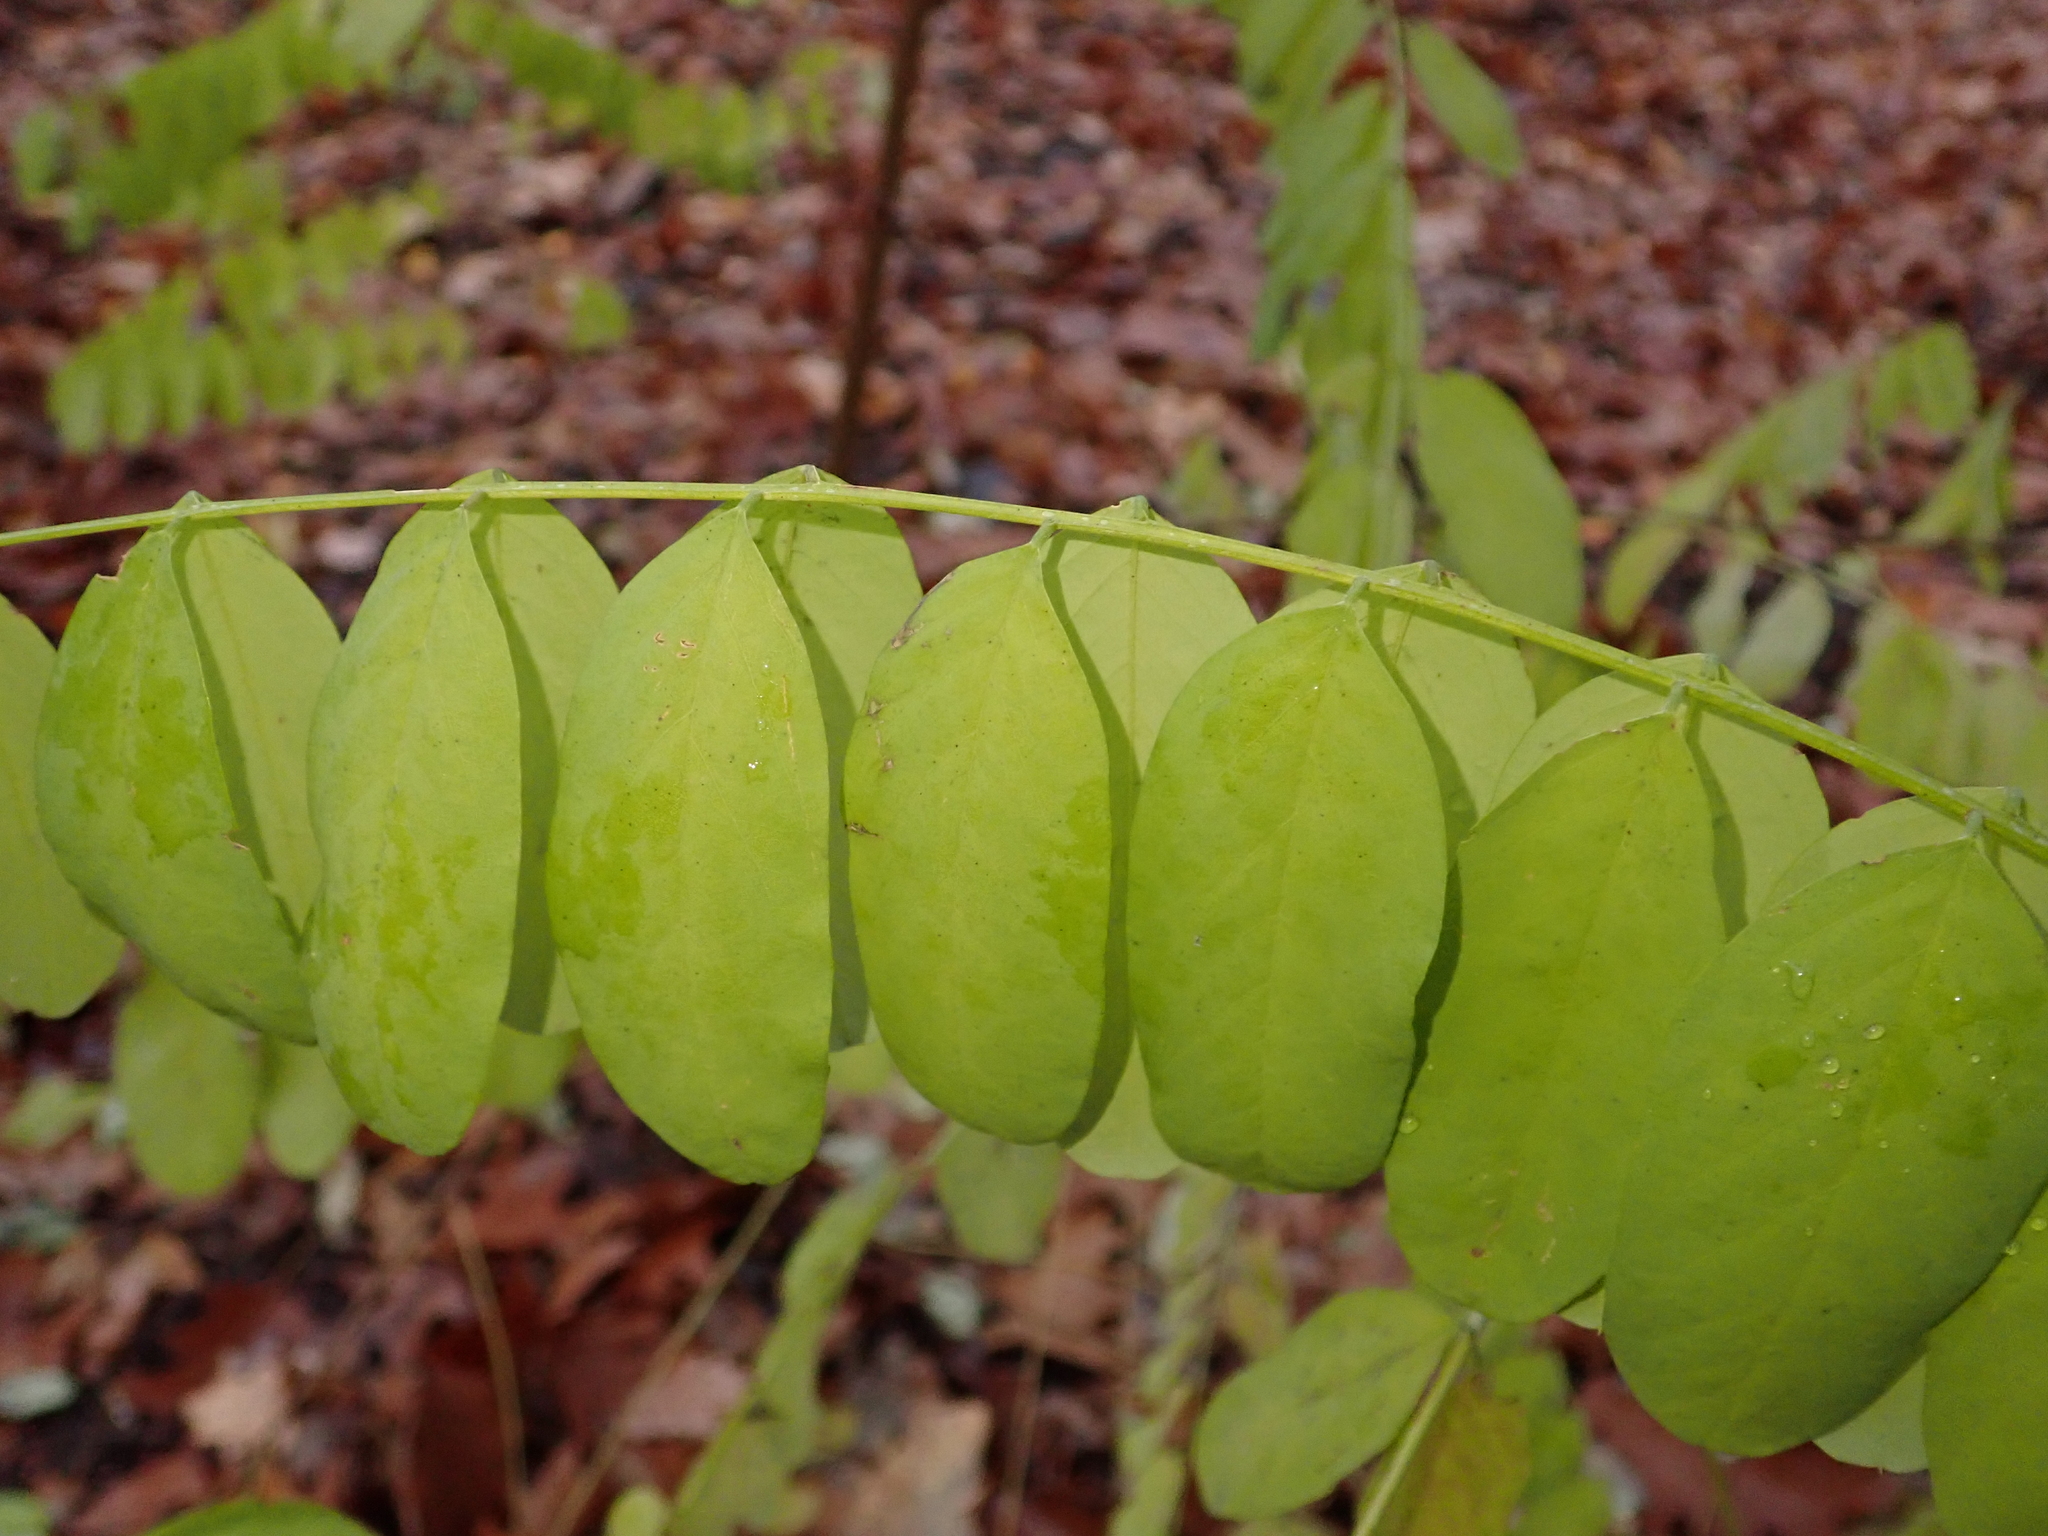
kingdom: Plantae
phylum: Tracheophyta
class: Magnoliopsida
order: Fabales
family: Fabaceae
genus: Robinia
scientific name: Robinia pseudoacacia
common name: Black locust
